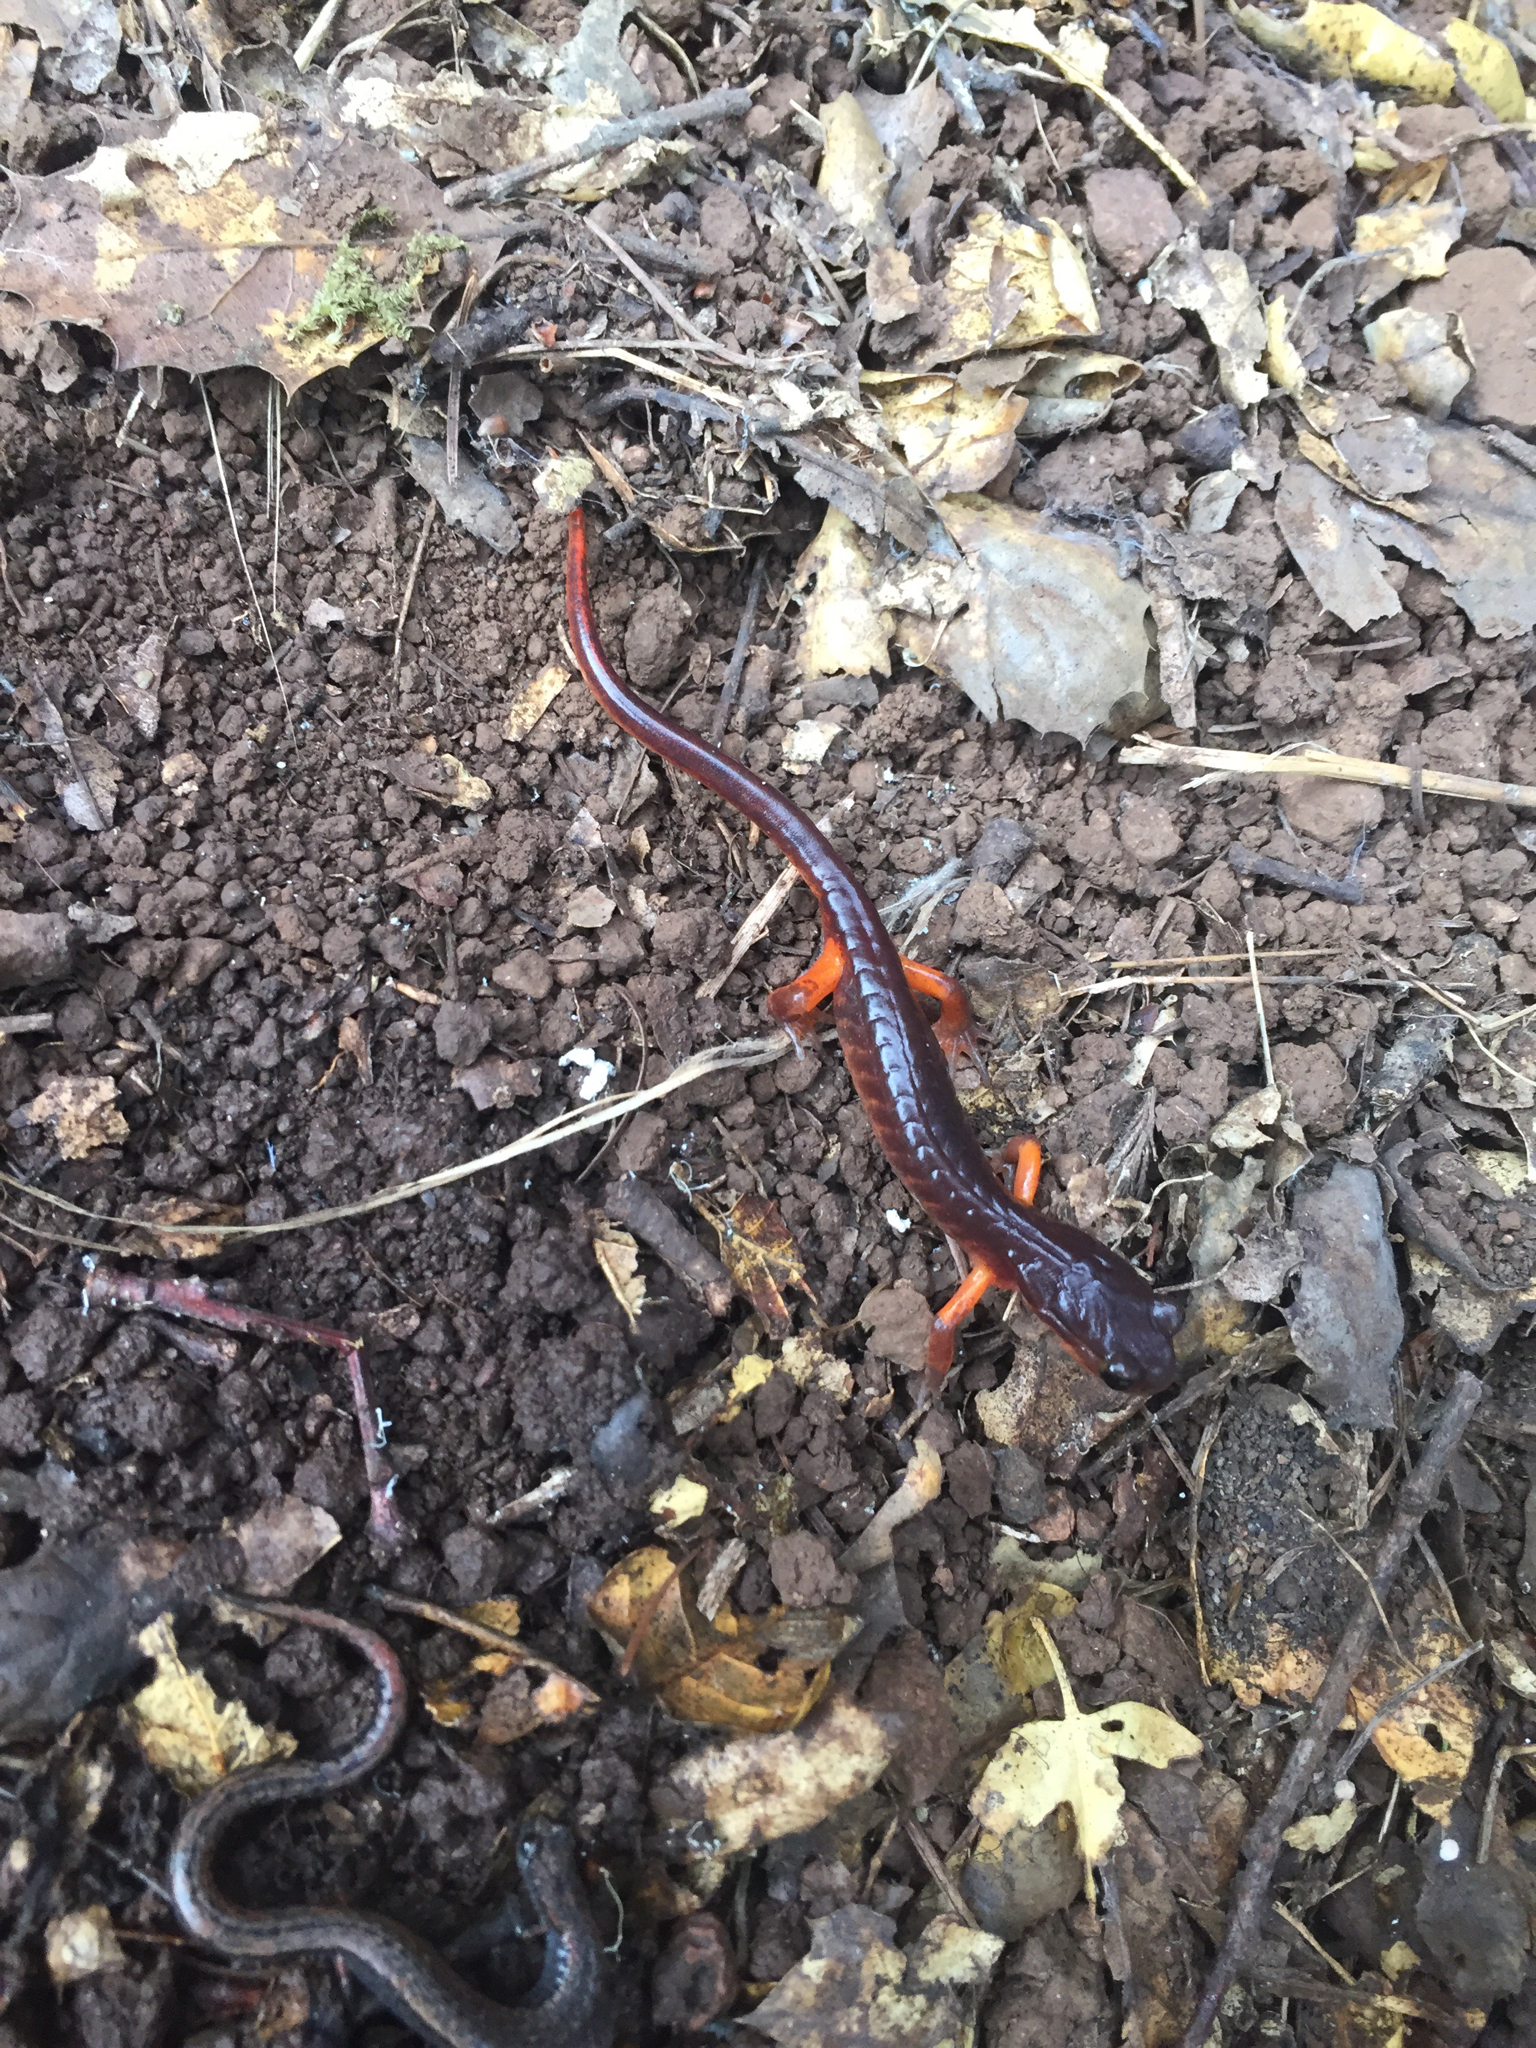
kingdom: Animalia
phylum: Chordata
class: Amphibia
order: Caudata
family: Plethodontidae
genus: Ensatina
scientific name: Ensatina eschscholtzii
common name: Ensatina
